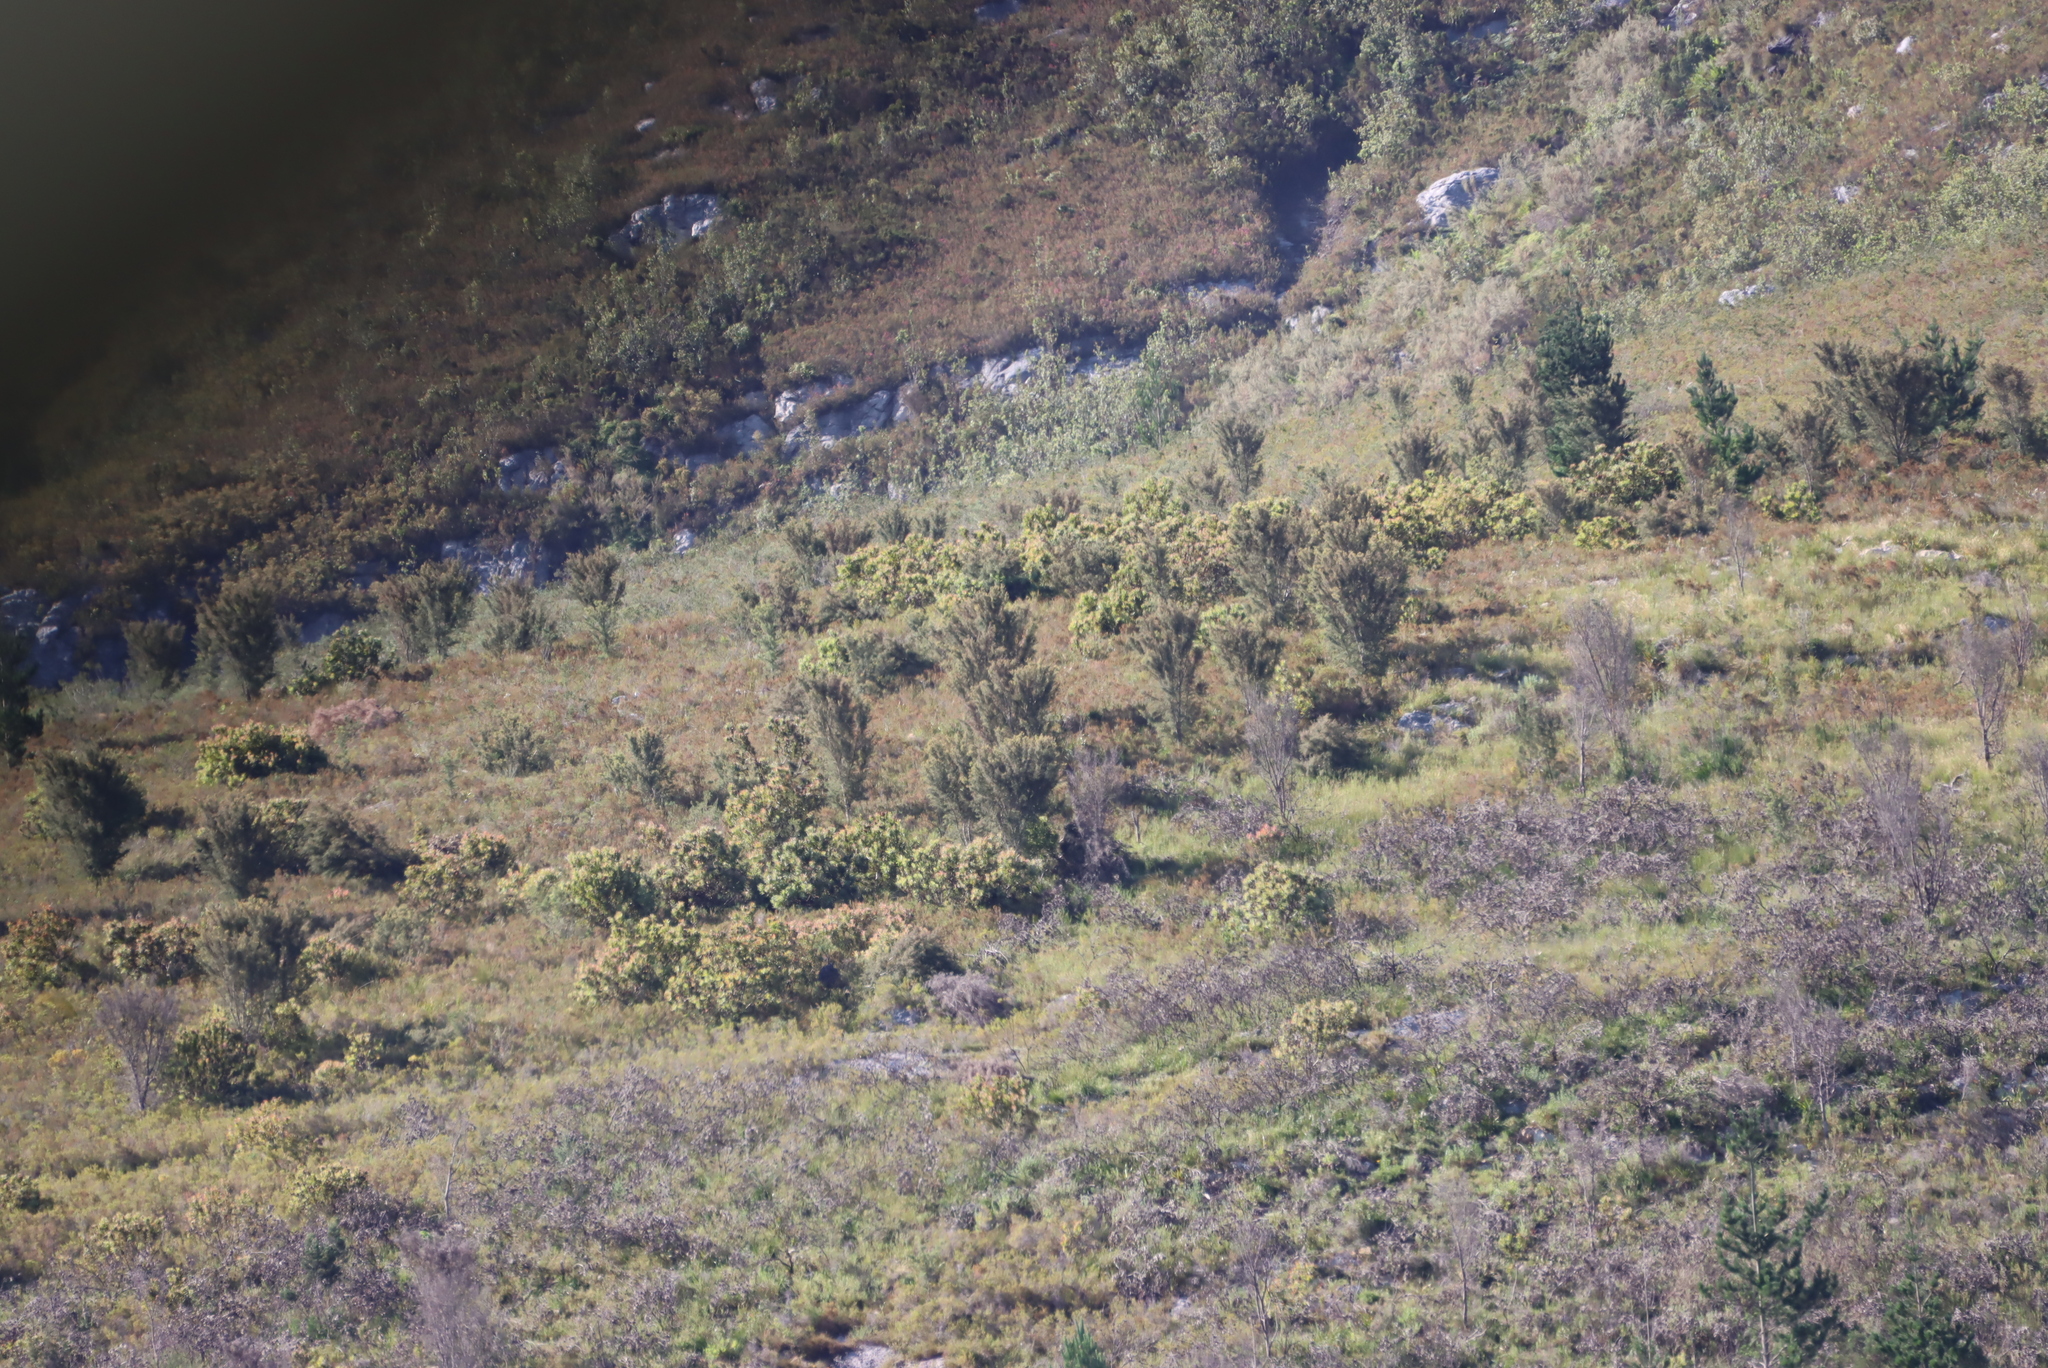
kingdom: Plantae
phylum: Tracheophyta
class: Magnoliopsida
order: Proteales
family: Proteaceae
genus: Hakea
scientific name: Hakea sericea
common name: Needle bush
